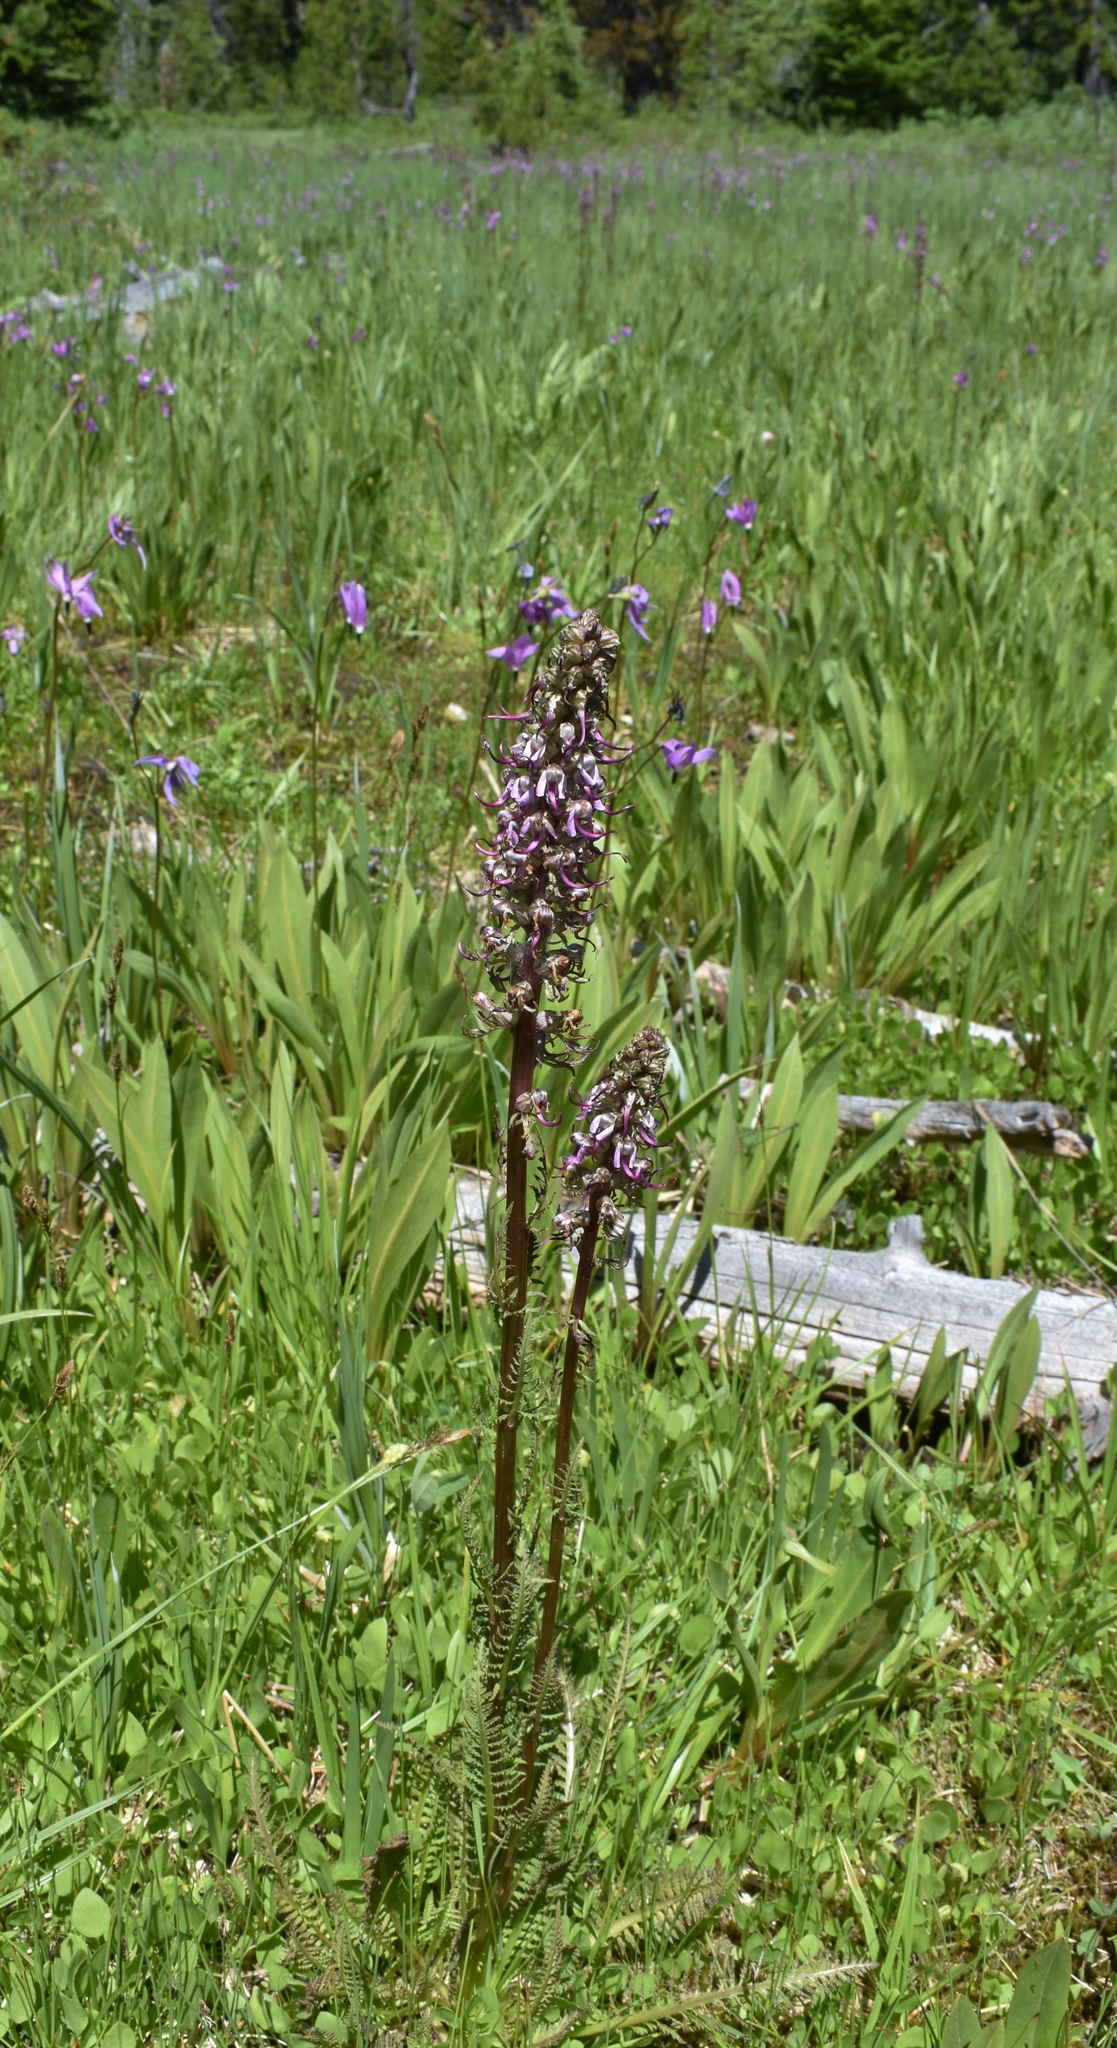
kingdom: Plantae
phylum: Tracheophyta
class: Magnoliopsida
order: Lamiales
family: Orobanchaceae
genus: Pedicularis
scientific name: Pedicularis groenlandica
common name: Elephant's-head
